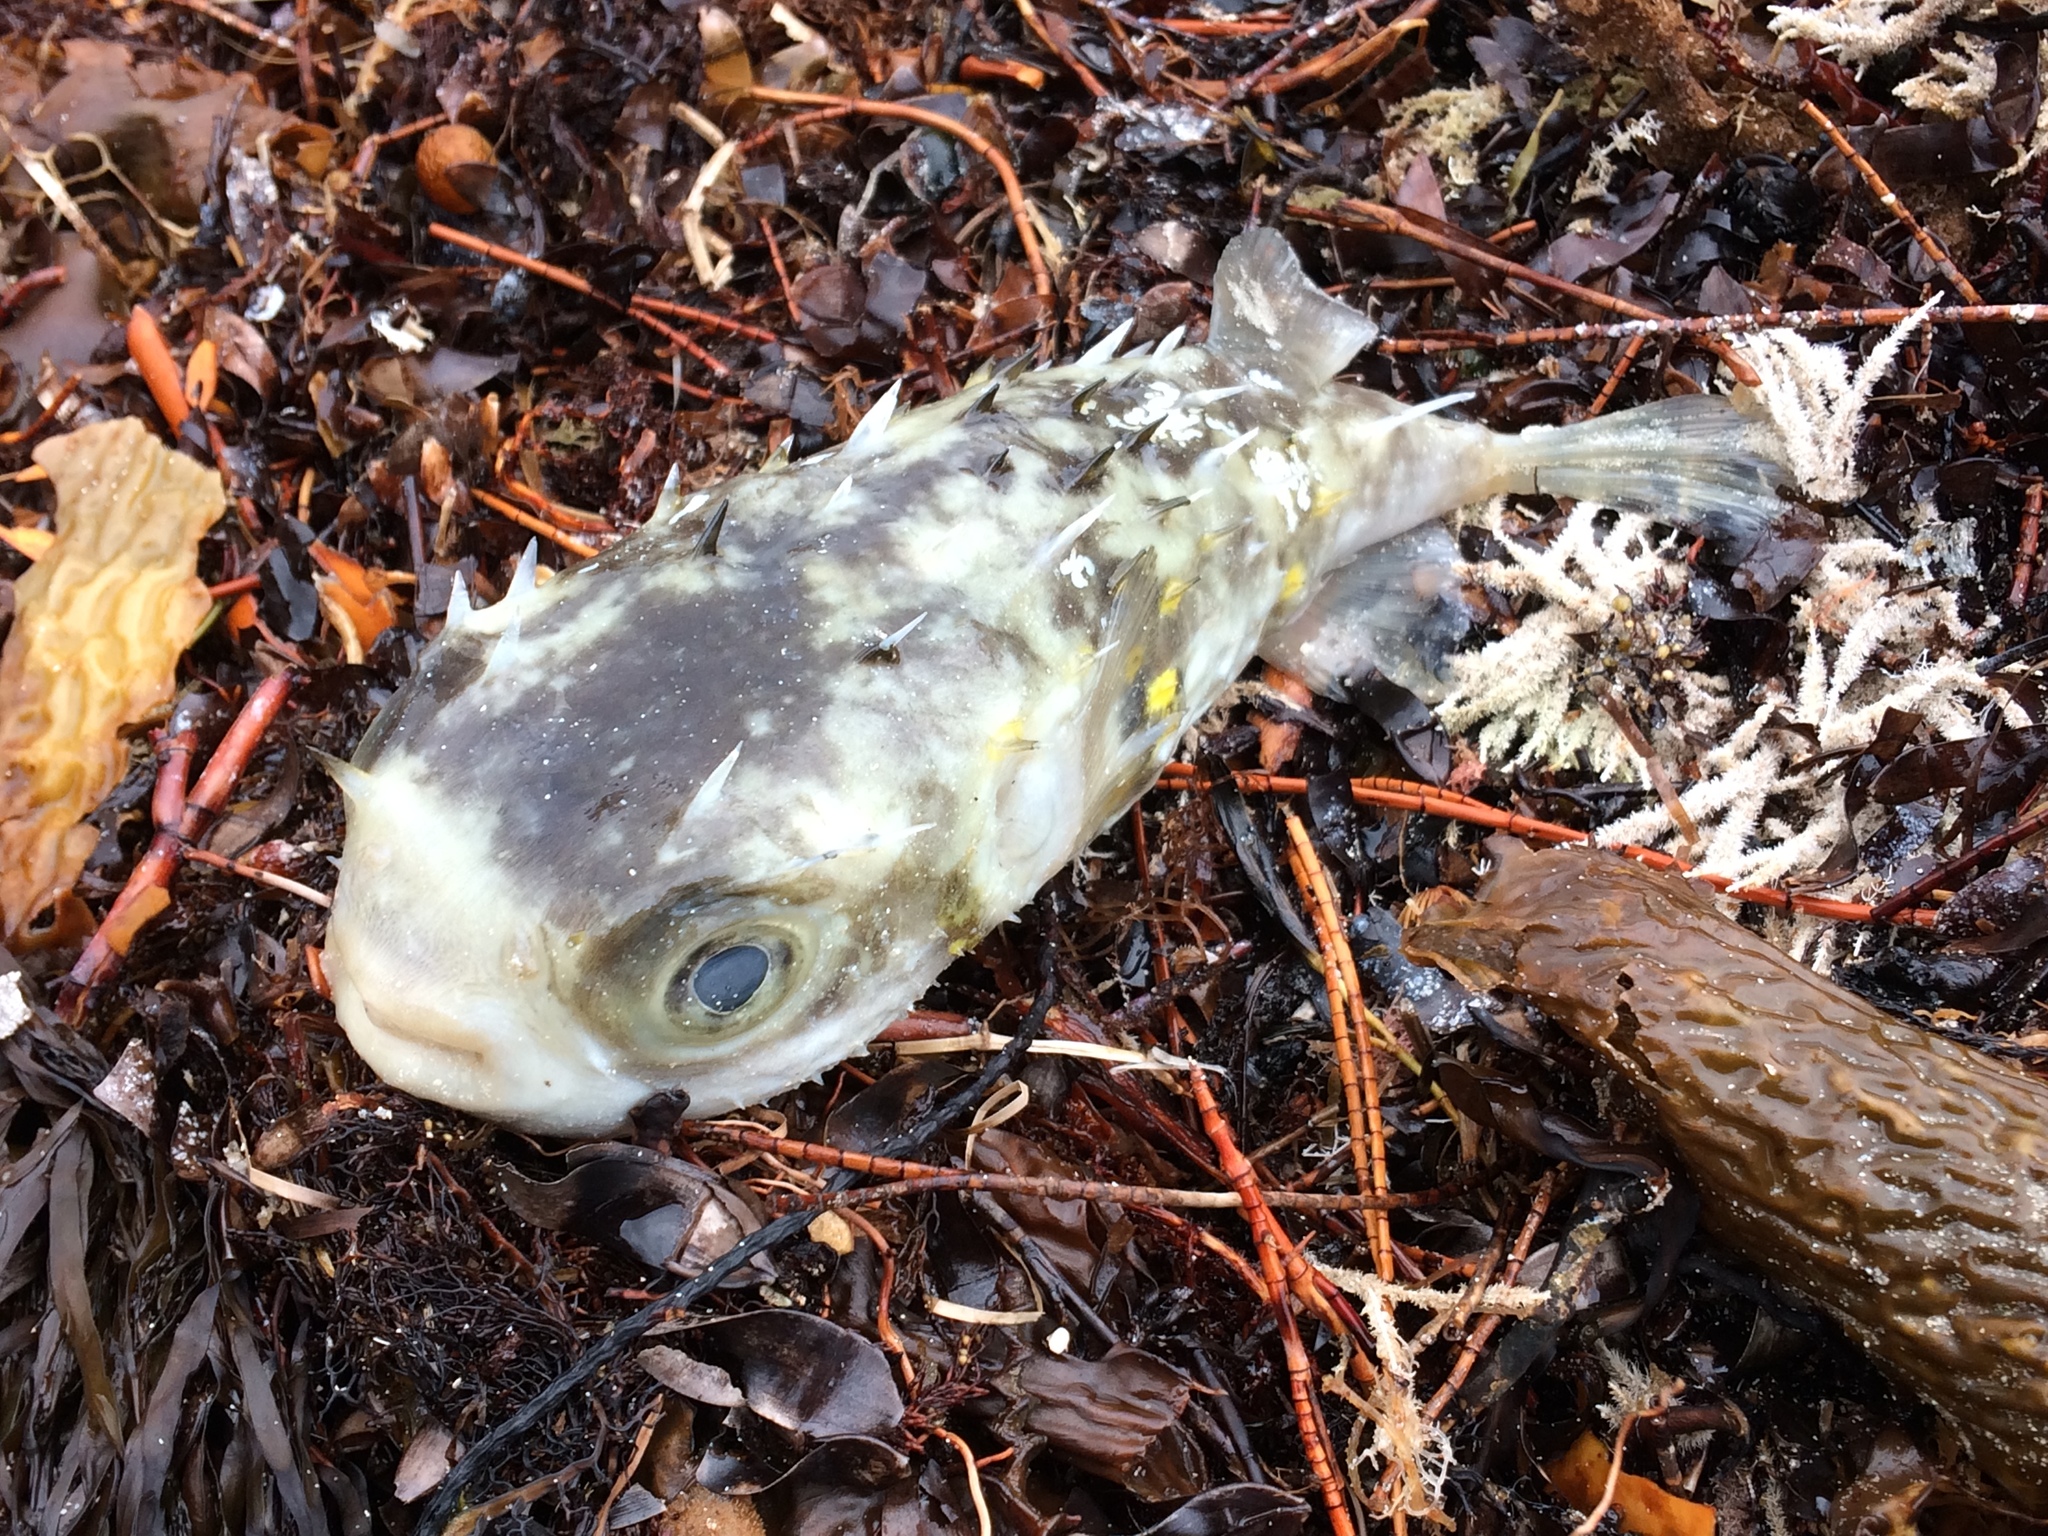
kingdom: Animalia
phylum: Chordata
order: Tetraodontiformes
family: Diodontidae
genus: Allomycterus
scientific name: Allomycterus pilatus
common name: No common name
